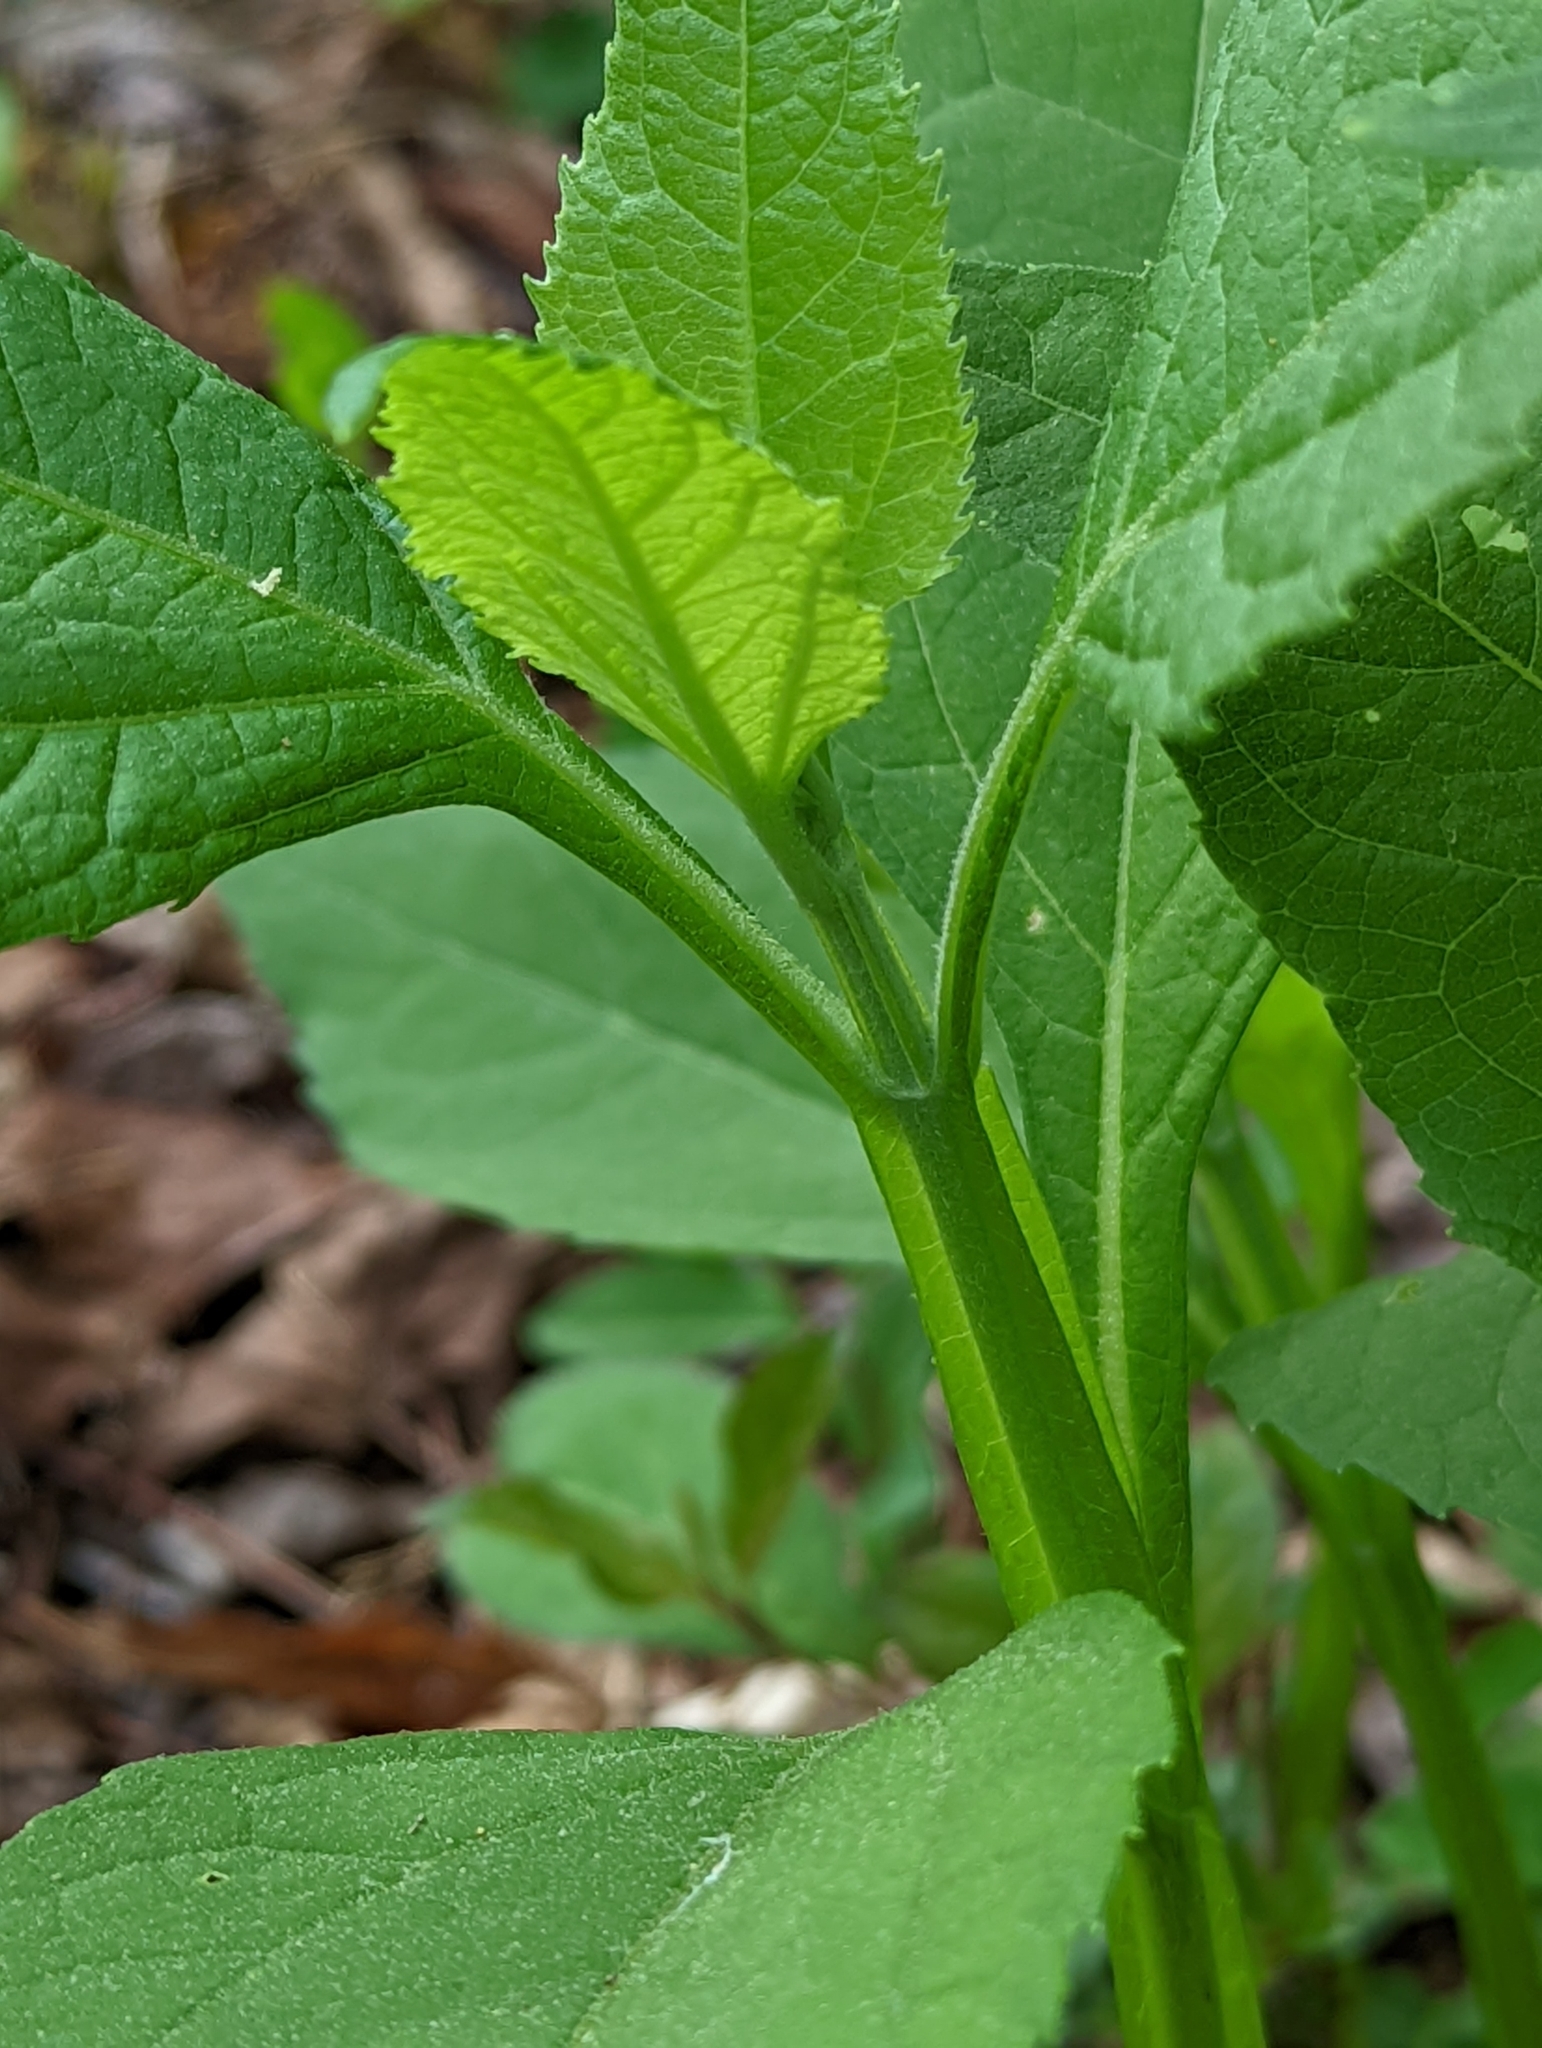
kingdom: Plantae
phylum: Tracheophyta
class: Magnoliopsida
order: Asterales
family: Asteraceae
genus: Verbesina
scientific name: Verbesina occidentalis
